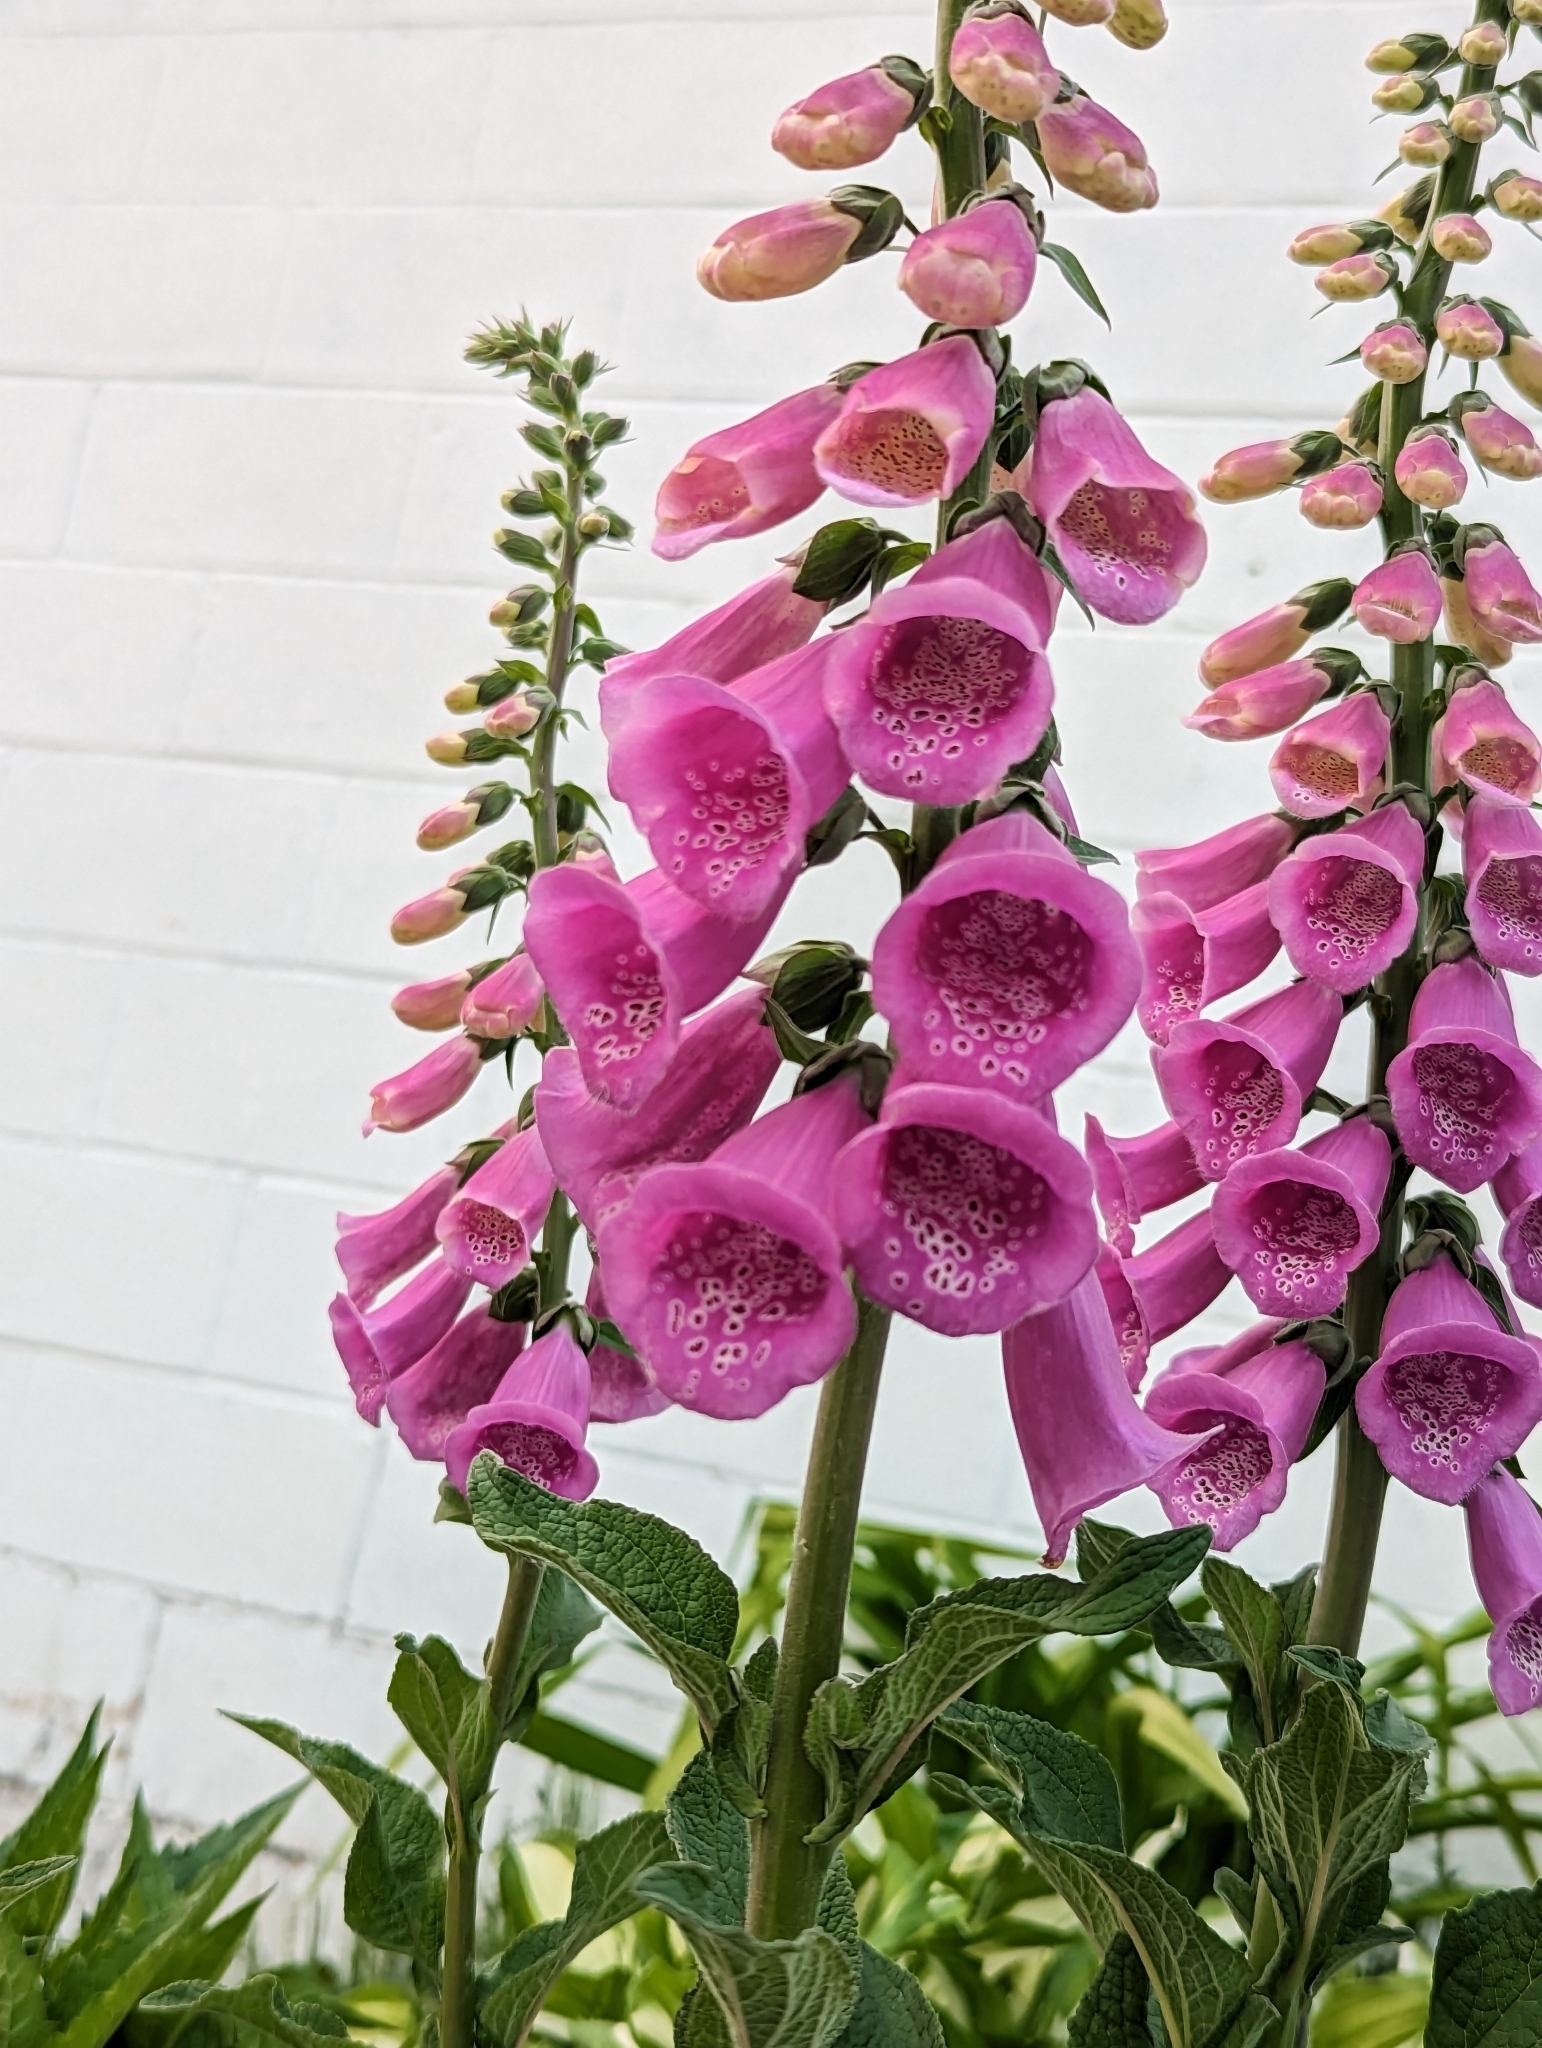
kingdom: Plantae
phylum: Tracheophyta
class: Magnoliopsida
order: Lamiales
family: Plantaginaceae
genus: Digitalis
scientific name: Digitalis purpurea
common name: Foxglove
